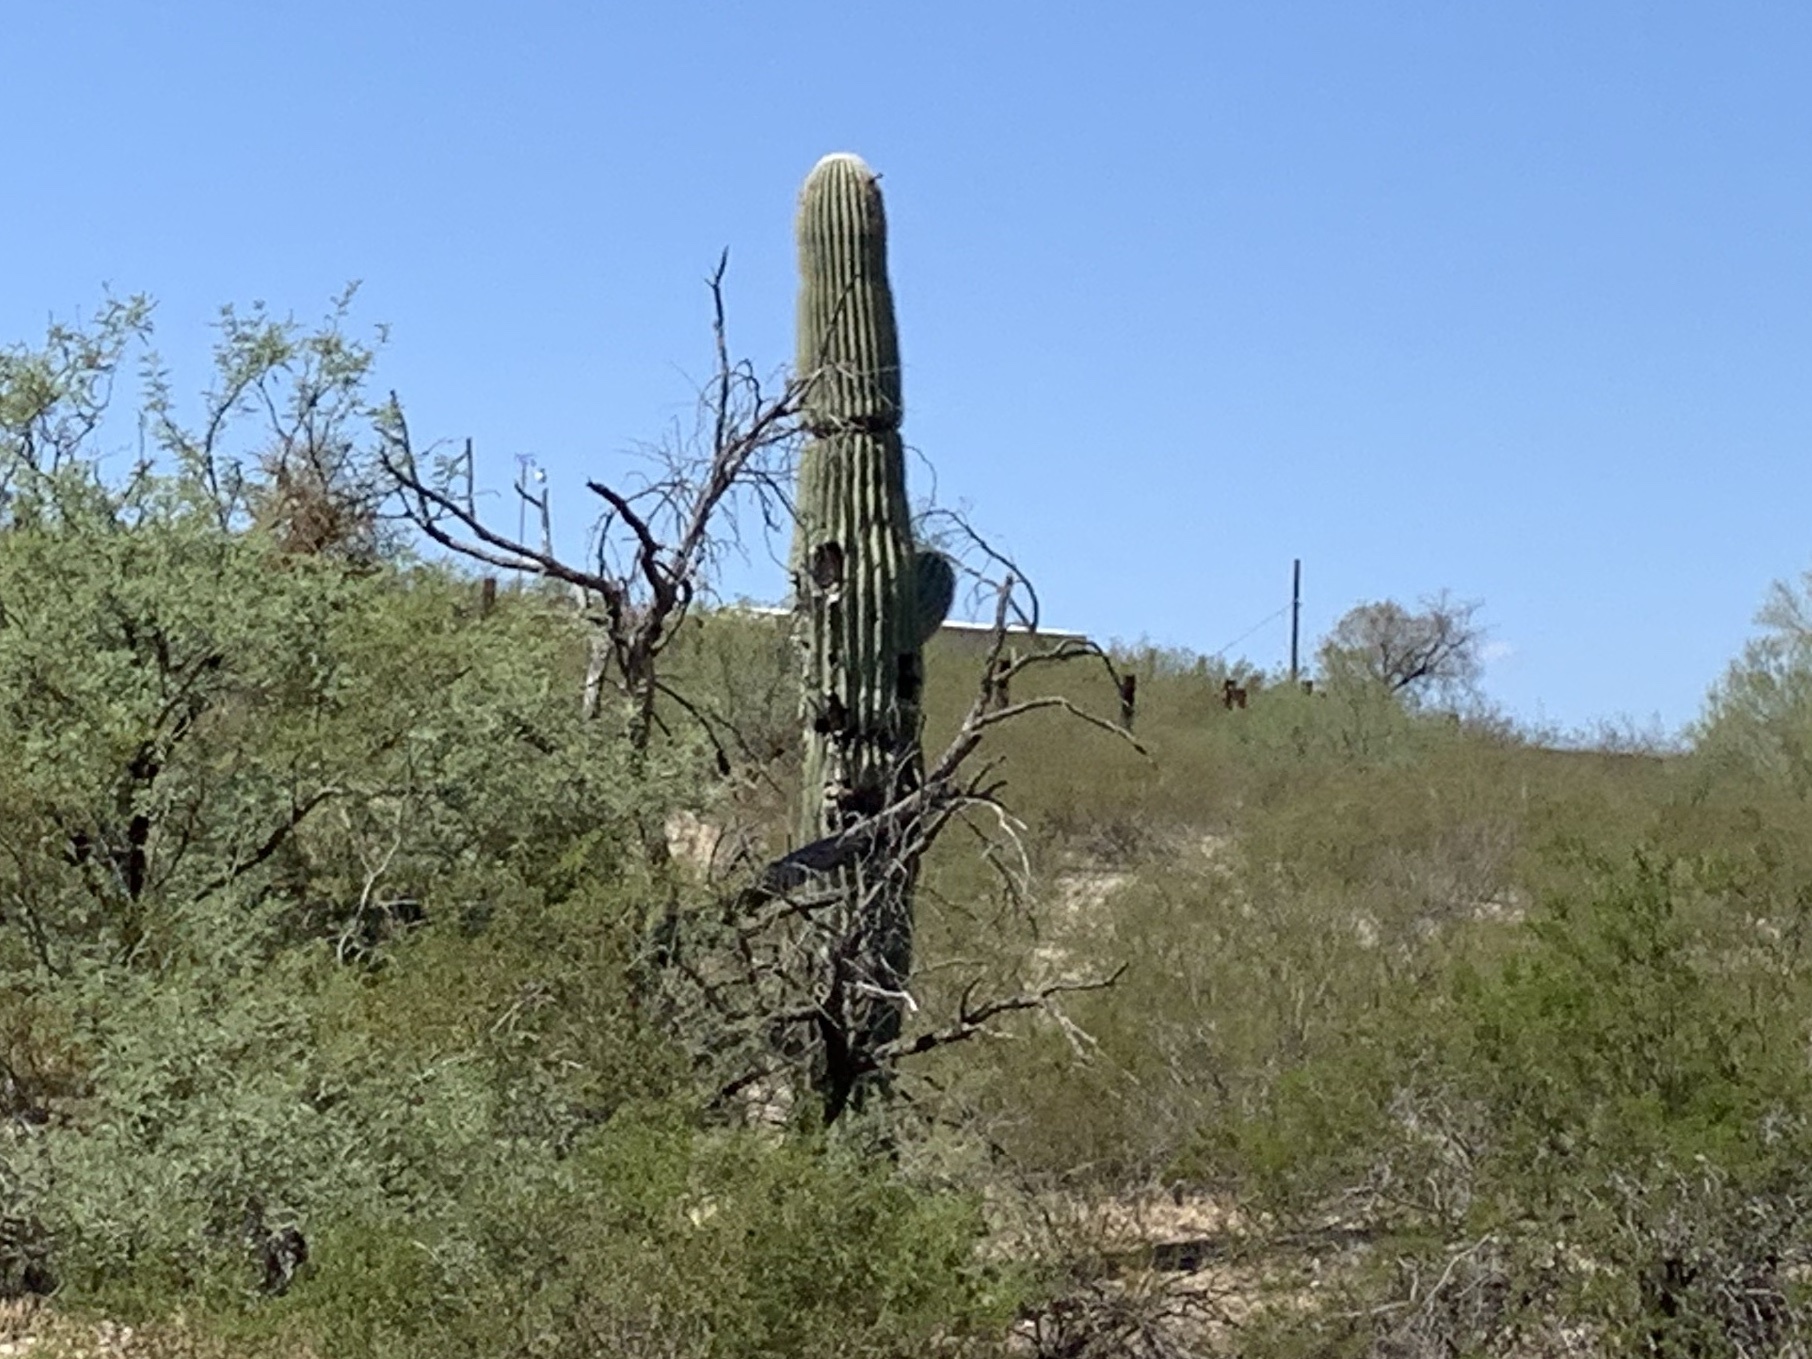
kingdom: Plantae
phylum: Tracheophyta
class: Magnoliopsida
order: Caryophyllales
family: Cactaceae
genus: Carnegiea
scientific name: Carnegiea gigantea
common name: Saguaro
